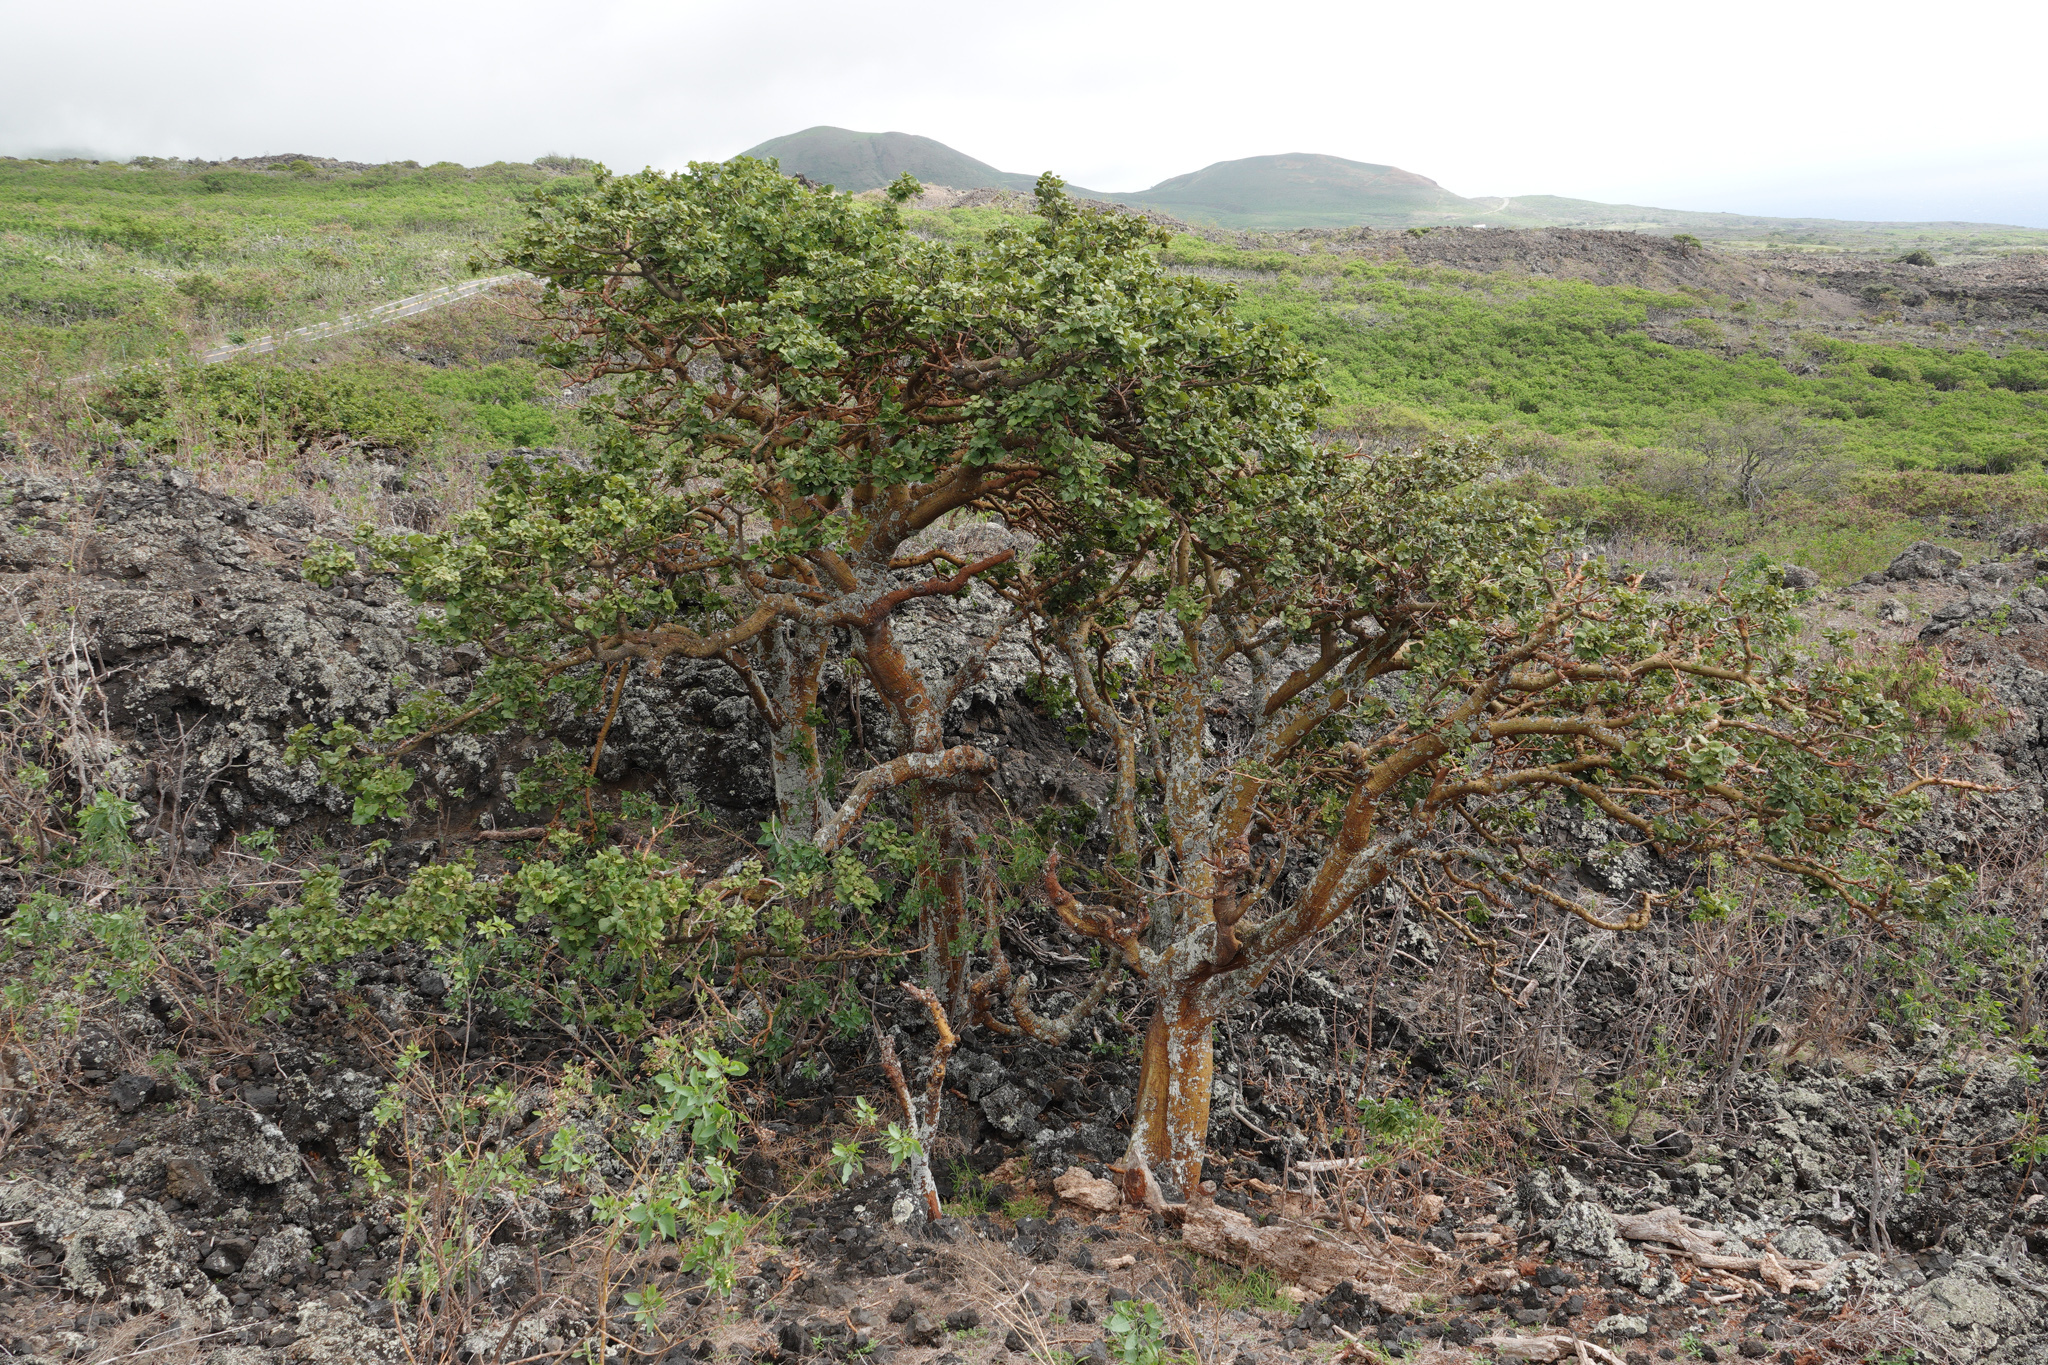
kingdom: Plantae
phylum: Tracheophyta
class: Magnoliopsida
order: Fabales
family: Fabaceae
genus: Erythrina
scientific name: Erythrina sandwicensis
